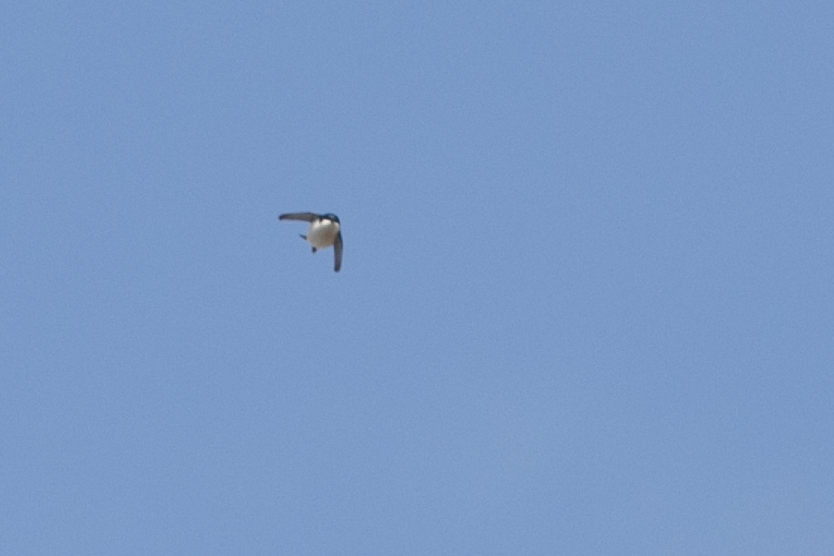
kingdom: Animalia
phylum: Chordata
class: Aves
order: Passeriformes
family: Hirundinidae
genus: Delichon
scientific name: Delichon urbicum
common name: Common house martin
